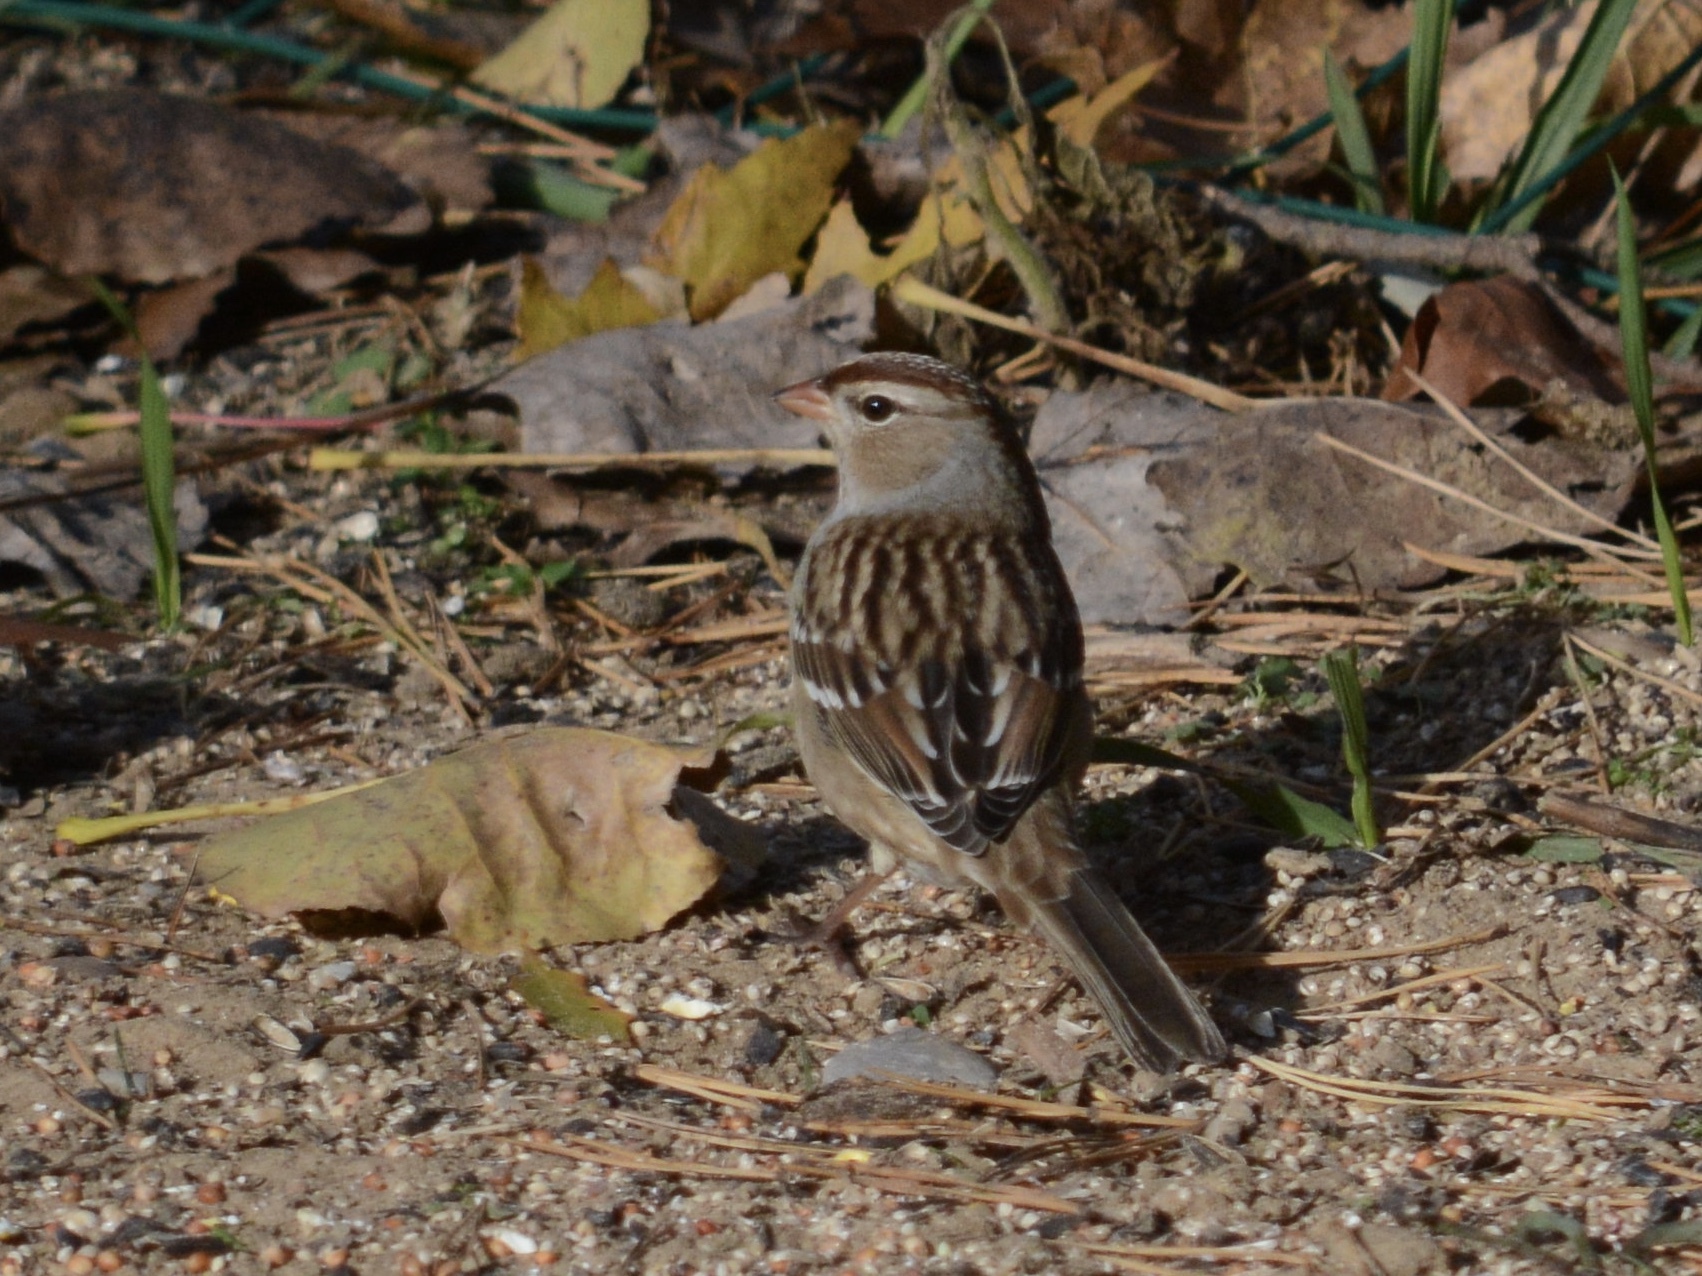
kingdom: Animalia
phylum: Chordata
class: Aves
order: Passeriformes
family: Passerellidae
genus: Zonotrichia
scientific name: Zonotrichia leucophrys
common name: White-crowned sparrow
